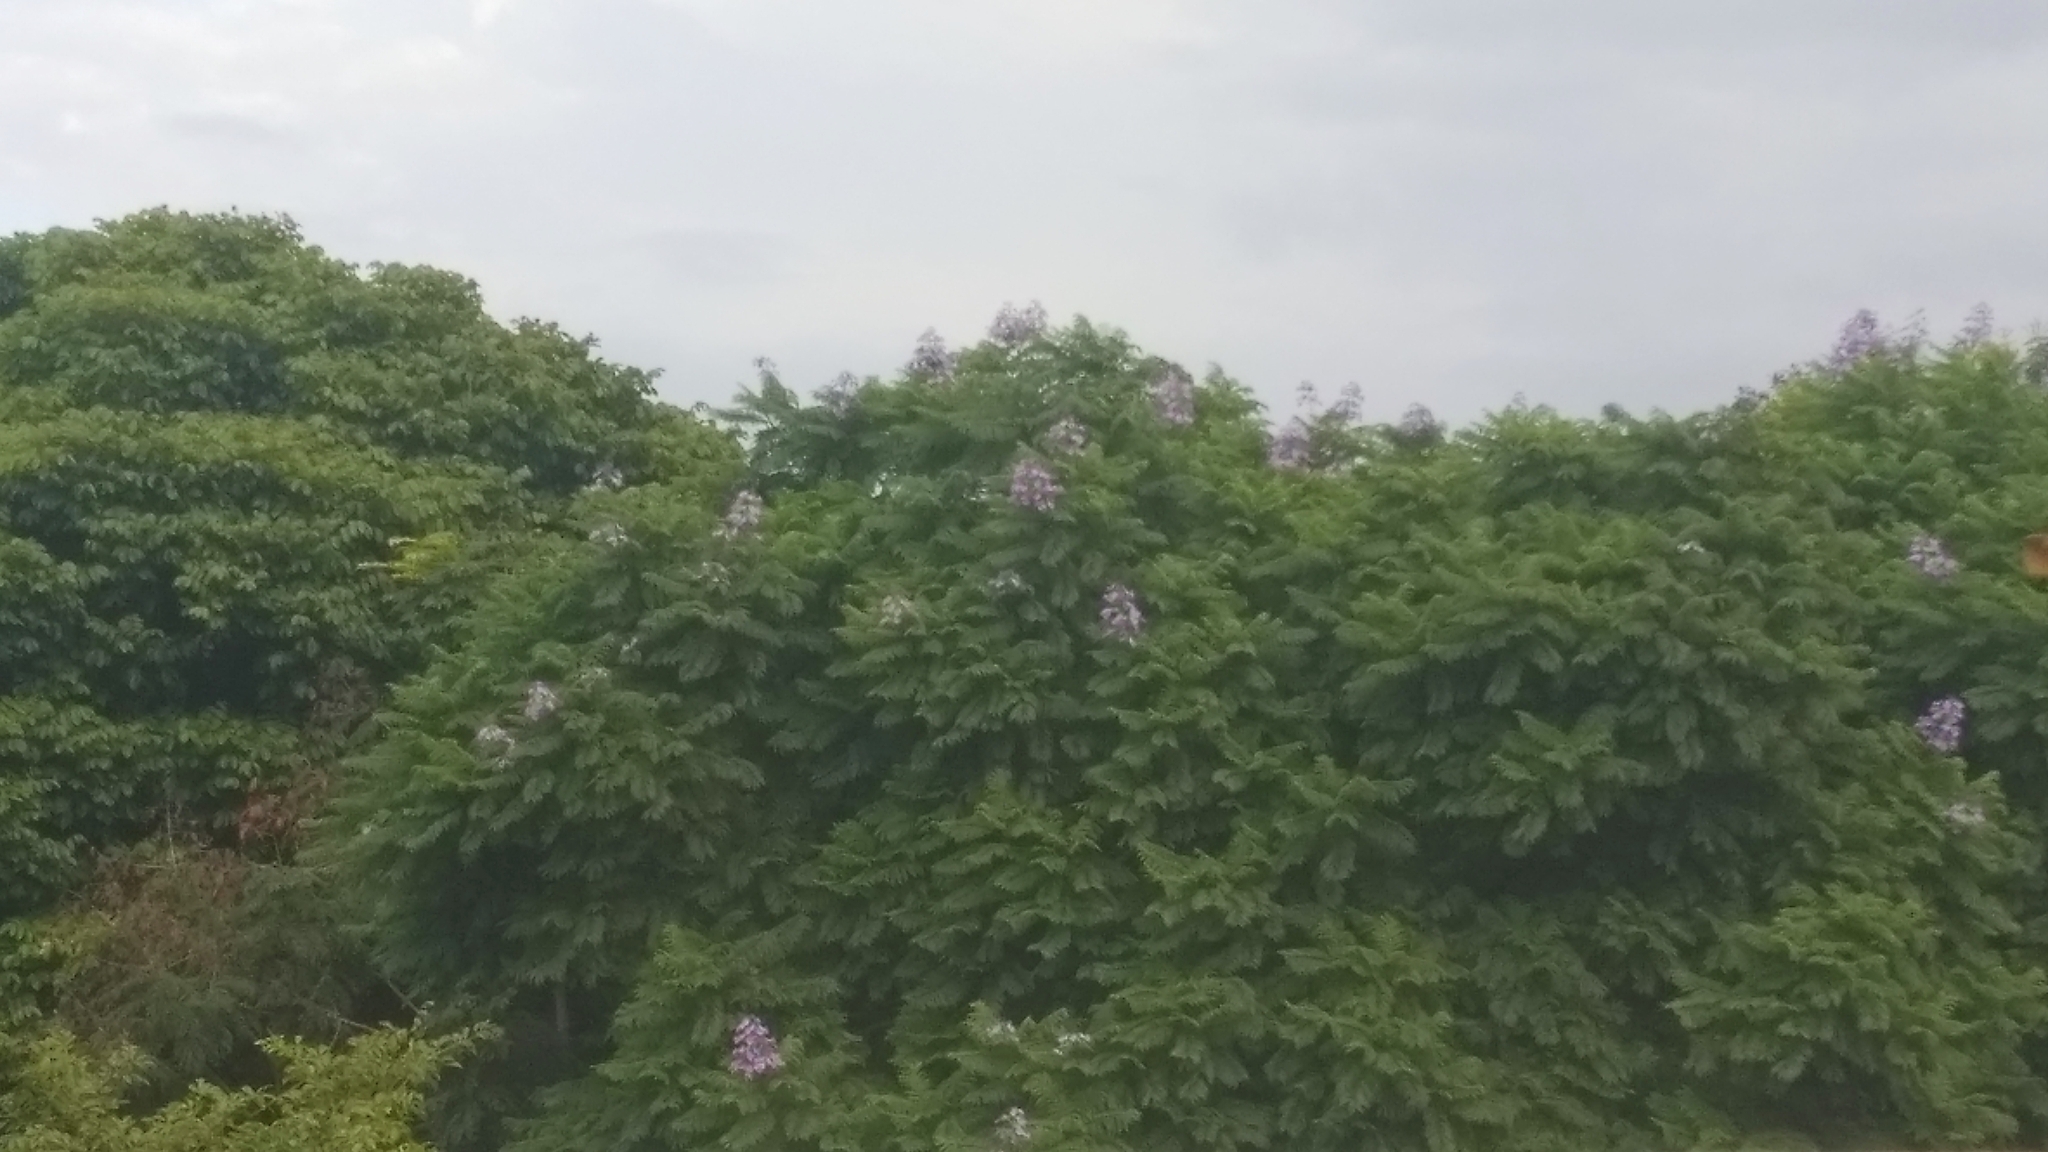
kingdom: Plantae
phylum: Tracheophyta
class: Magnoliopsida
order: Lamiales
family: Bignoniaceae
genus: Jacaranda
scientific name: Jacaranda mimosifolia
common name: Black poui
